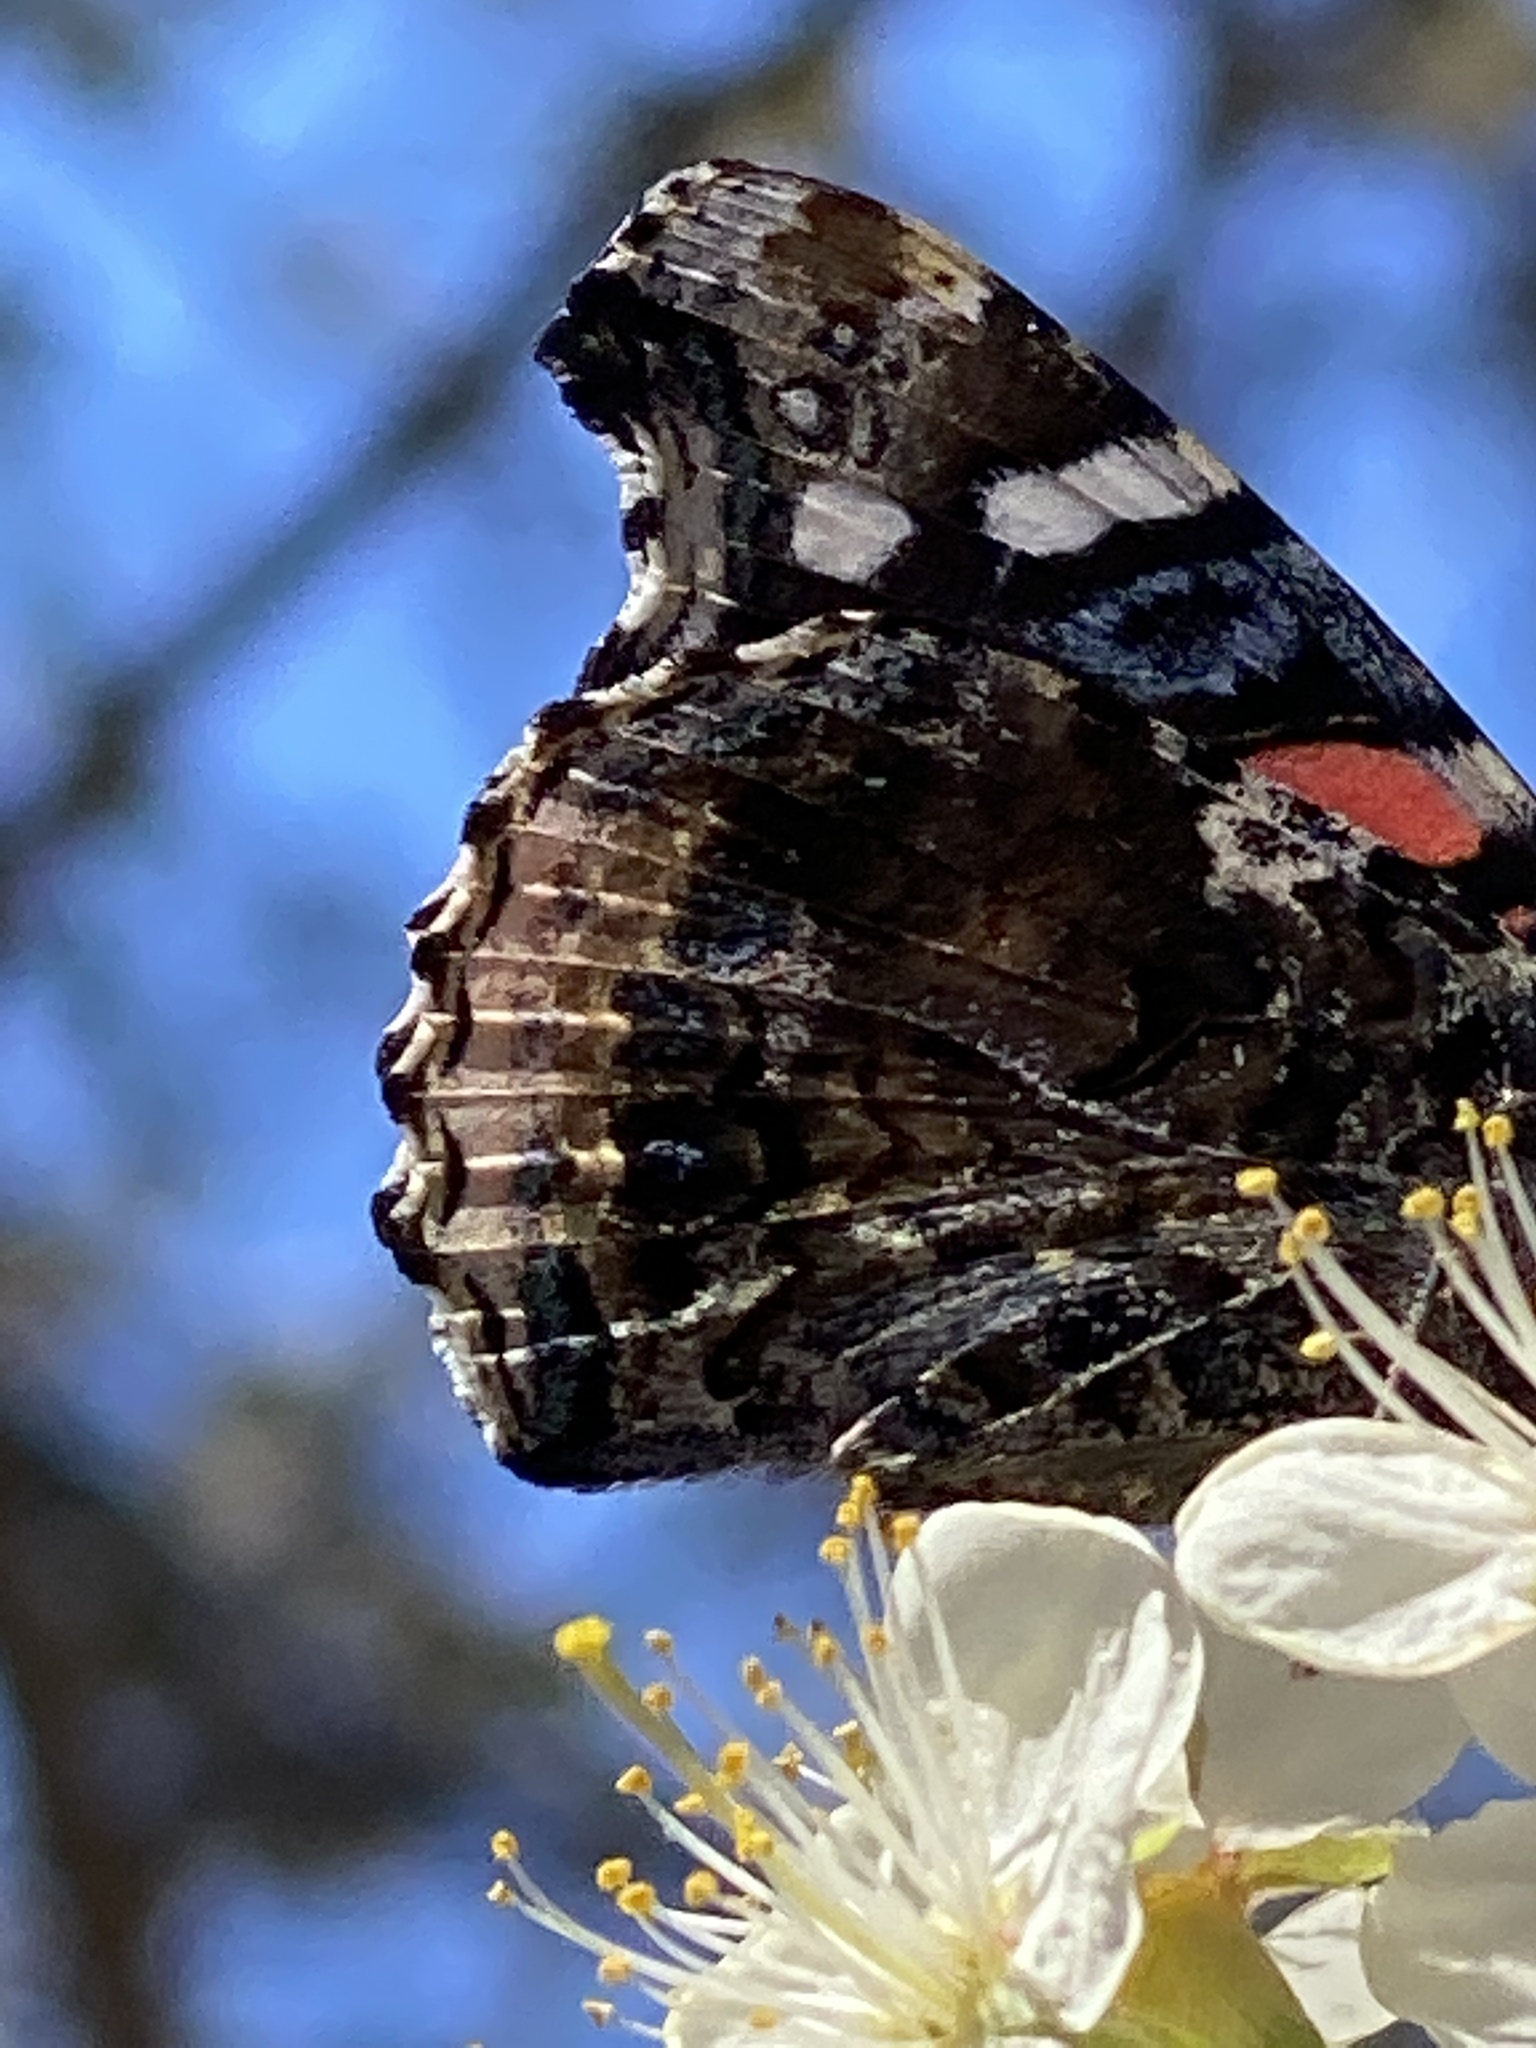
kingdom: Animalia
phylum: Arthropoda
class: Insecta
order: Lepidoptera
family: Nymphalidae
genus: Vanessa
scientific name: Vanessa atalanta
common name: Red admiral
